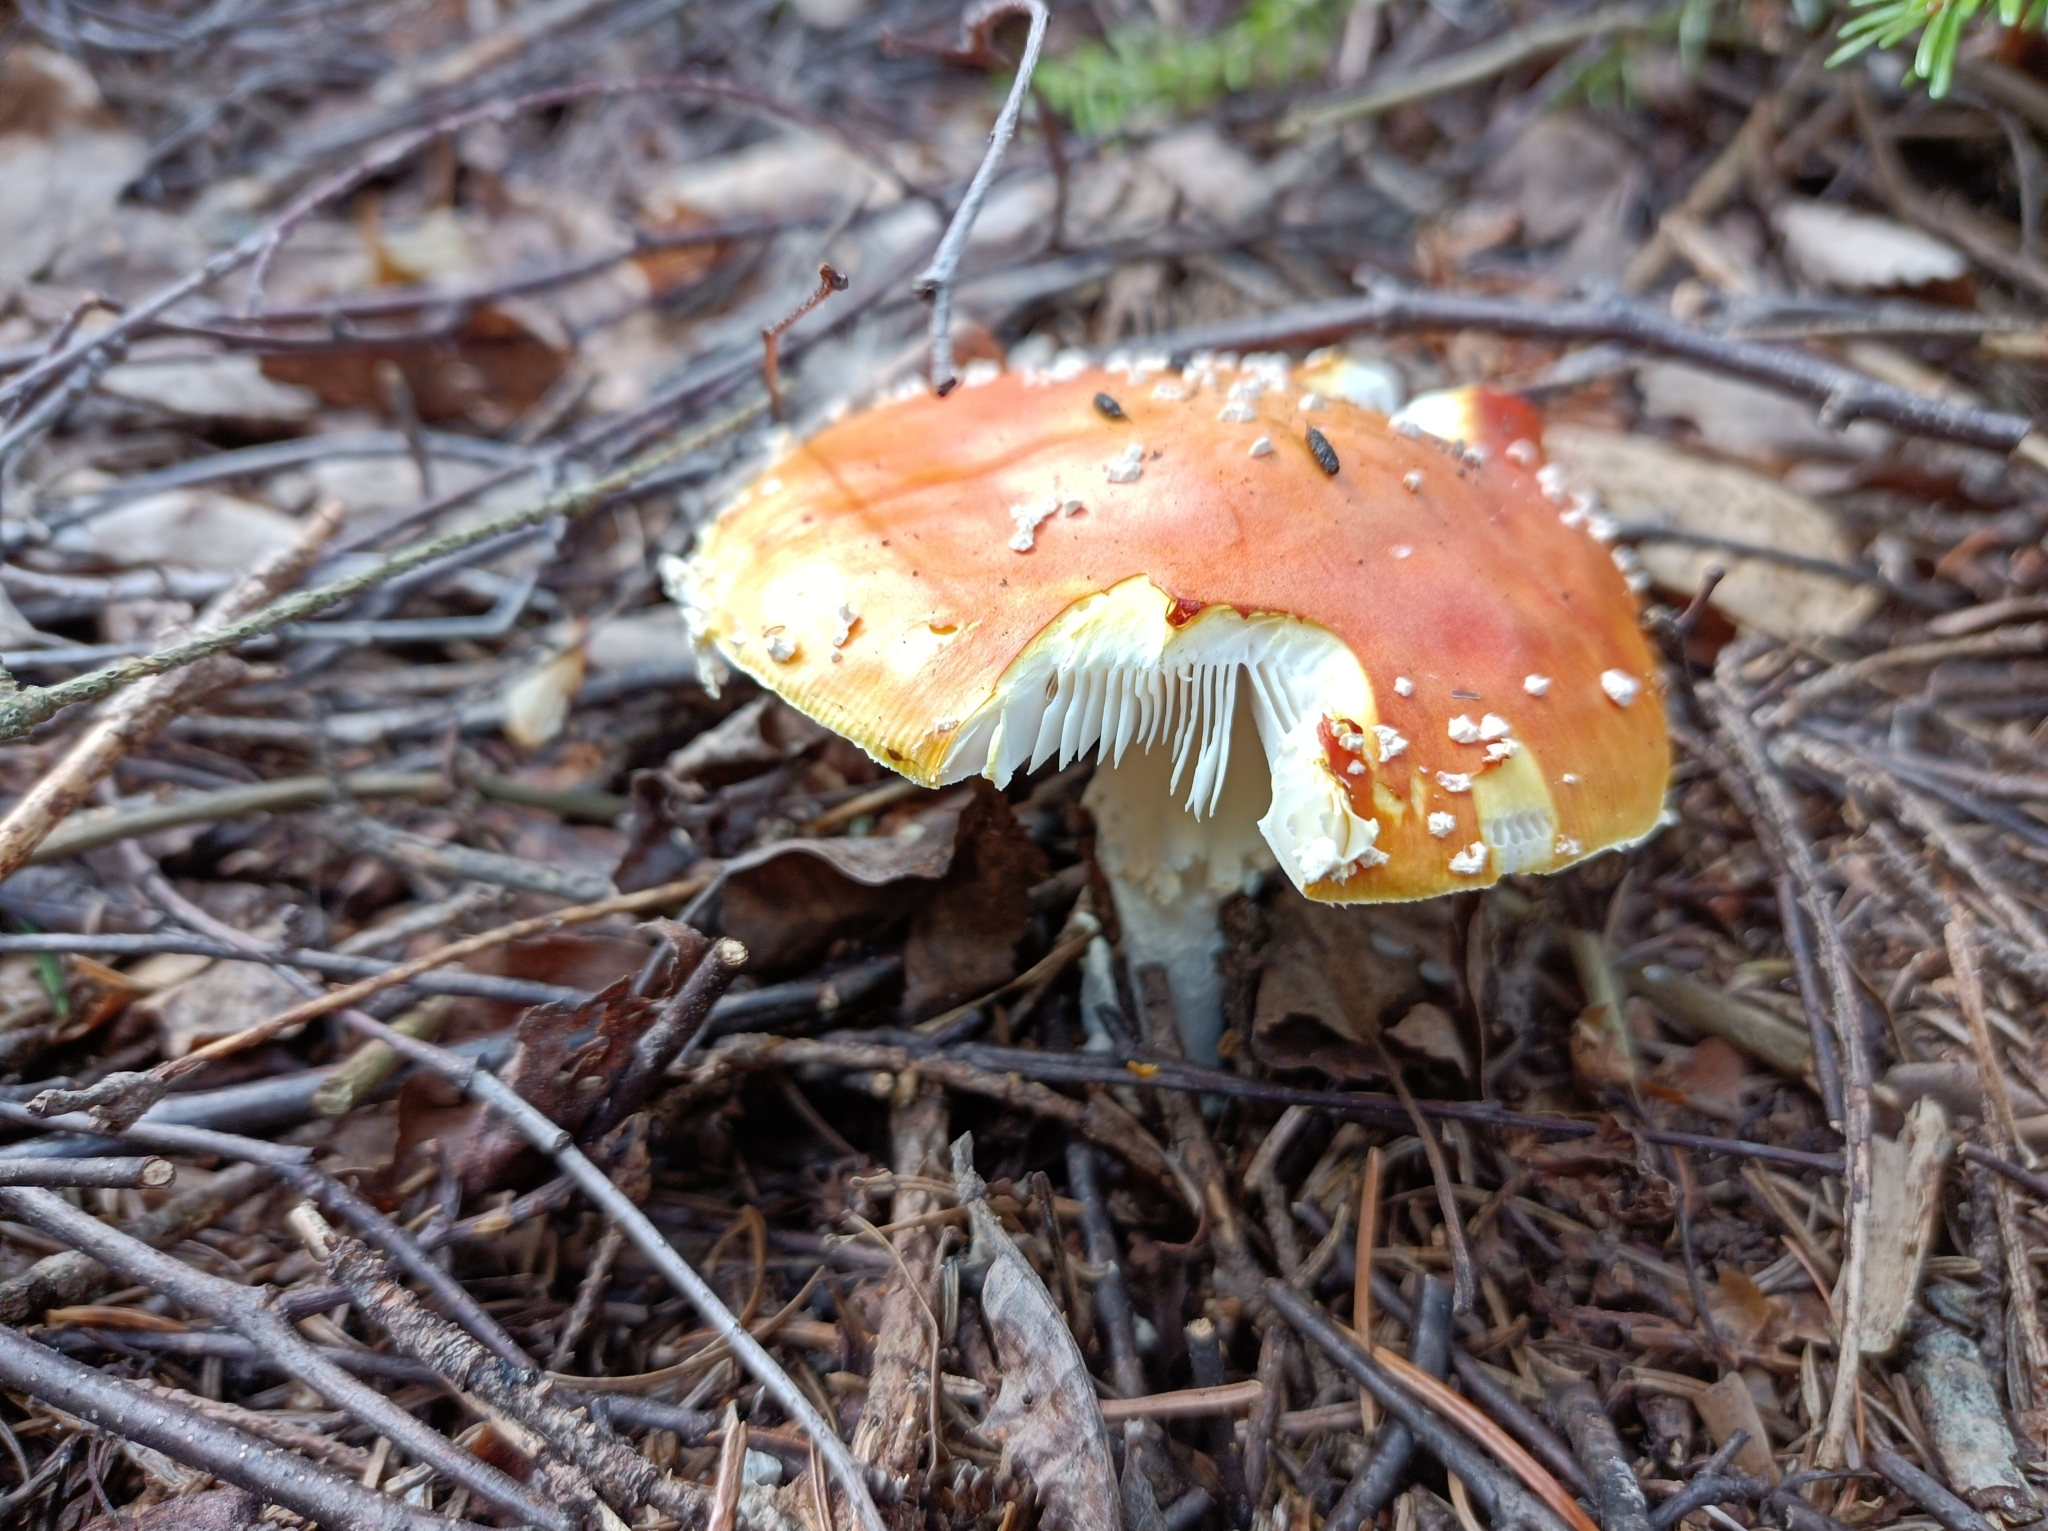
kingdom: Fungi
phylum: Basidiomycota
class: Agaricomycetes
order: Agaricales
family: Amanitaceae
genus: Amanita
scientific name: Amanita muscaria
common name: Fly agaric
